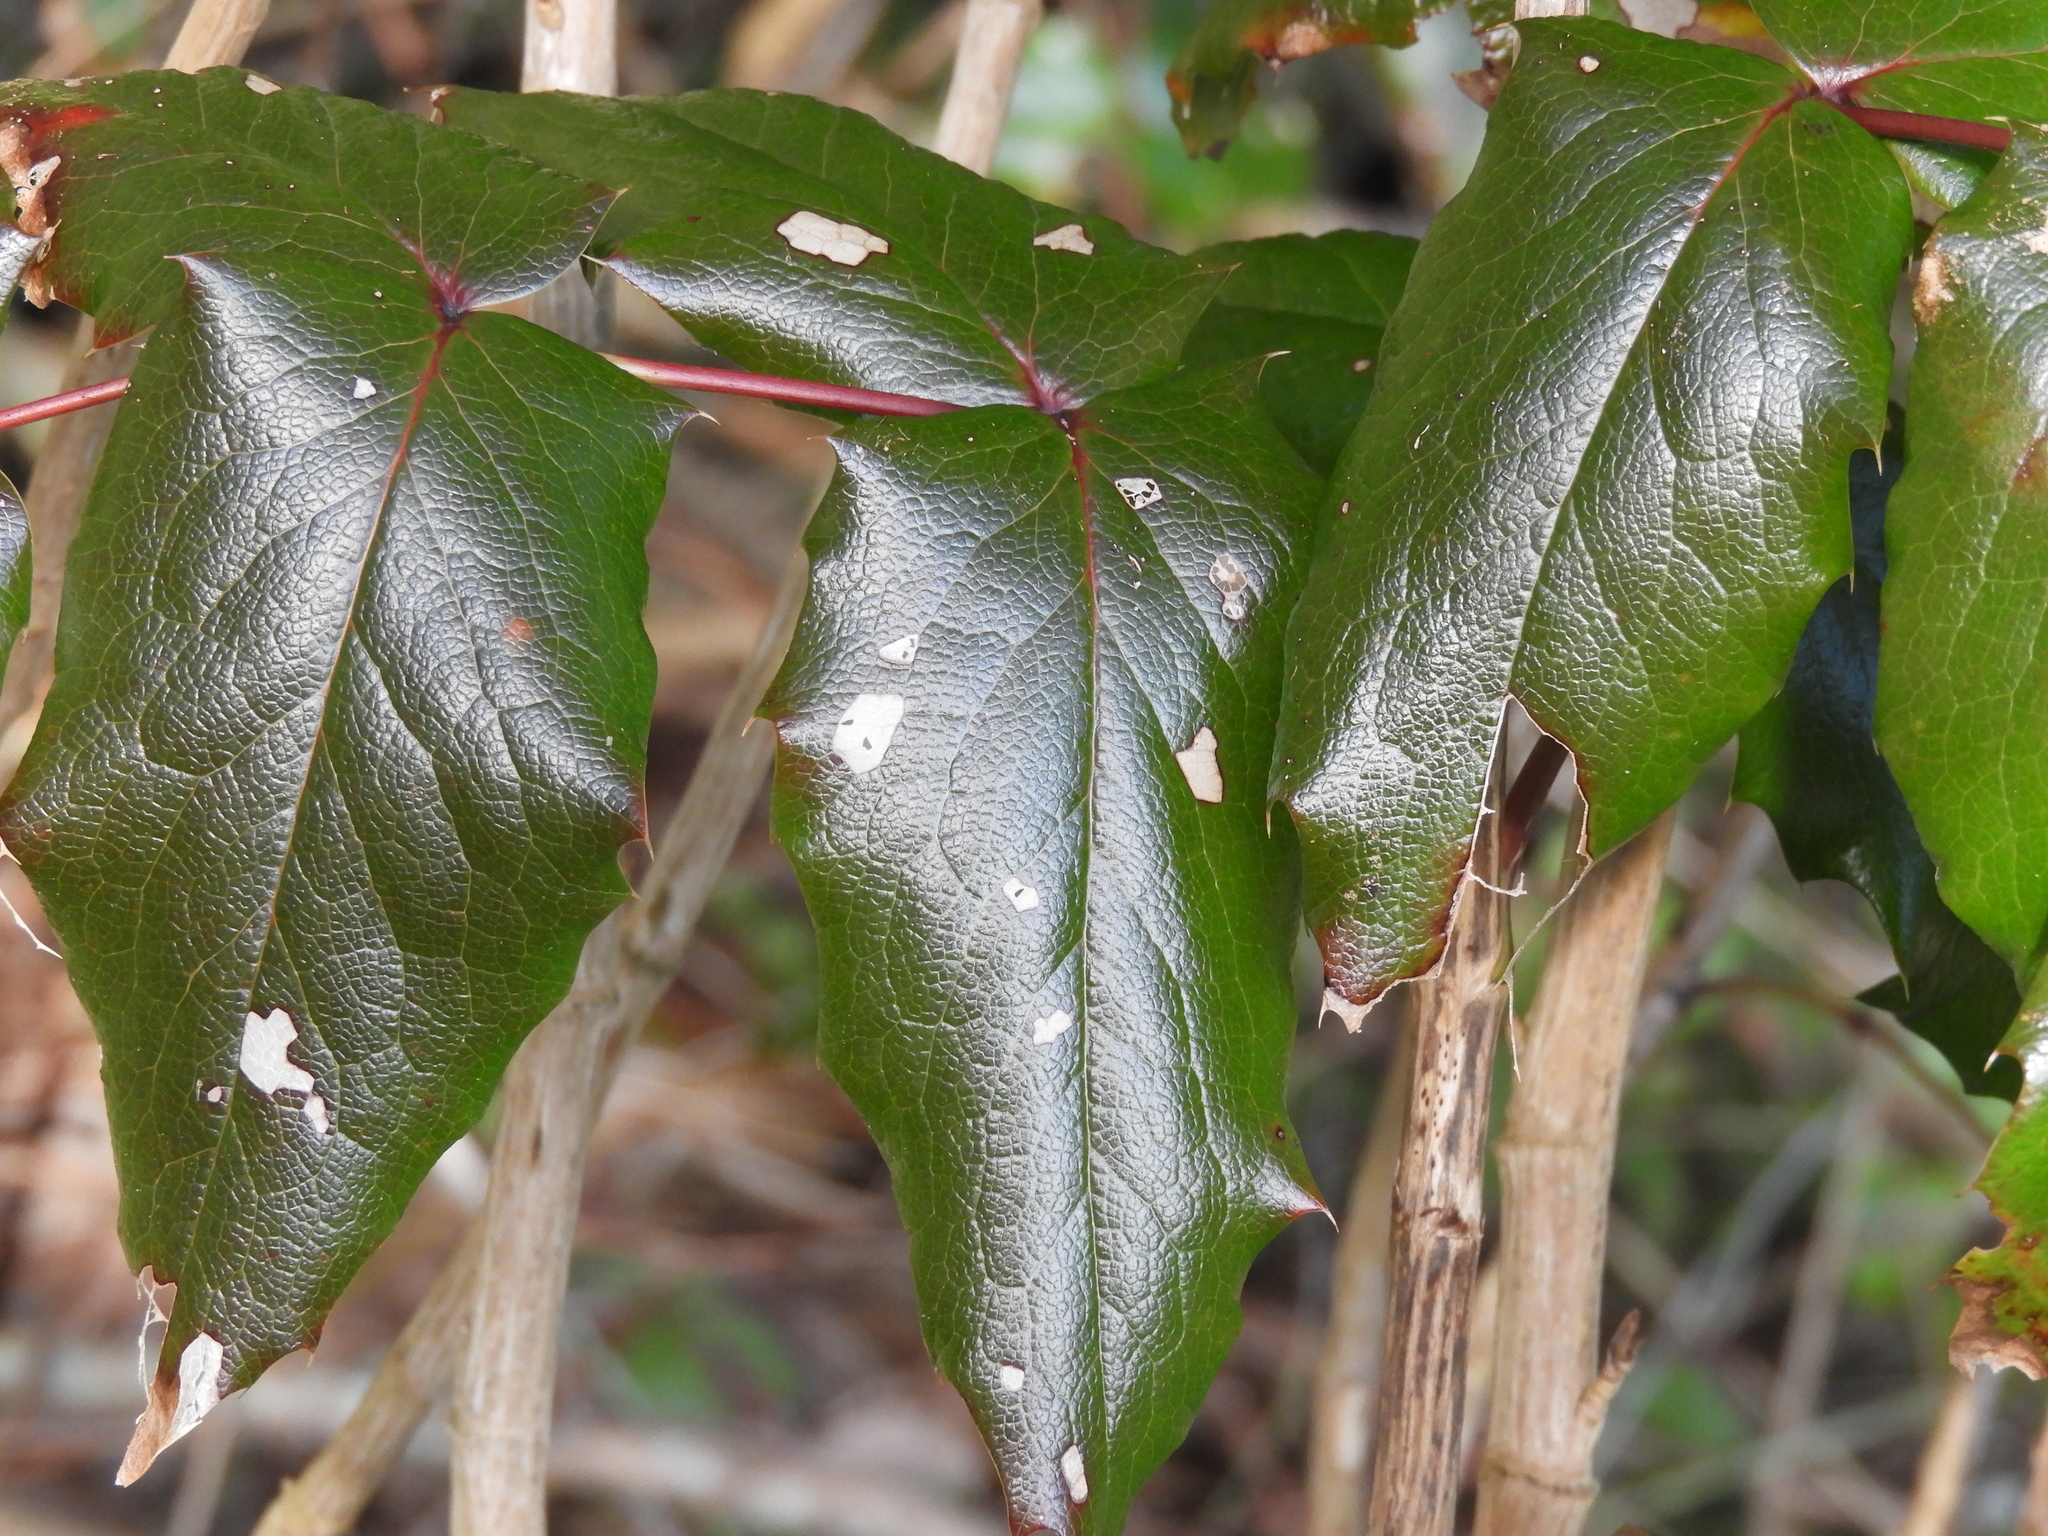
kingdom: Plantae
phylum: Tracheophyta
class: Magnoliopsida
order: Ranunculales
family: Berberidaceae
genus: Mahonia
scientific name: Mahonia aquifolium
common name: Oregon-grape
